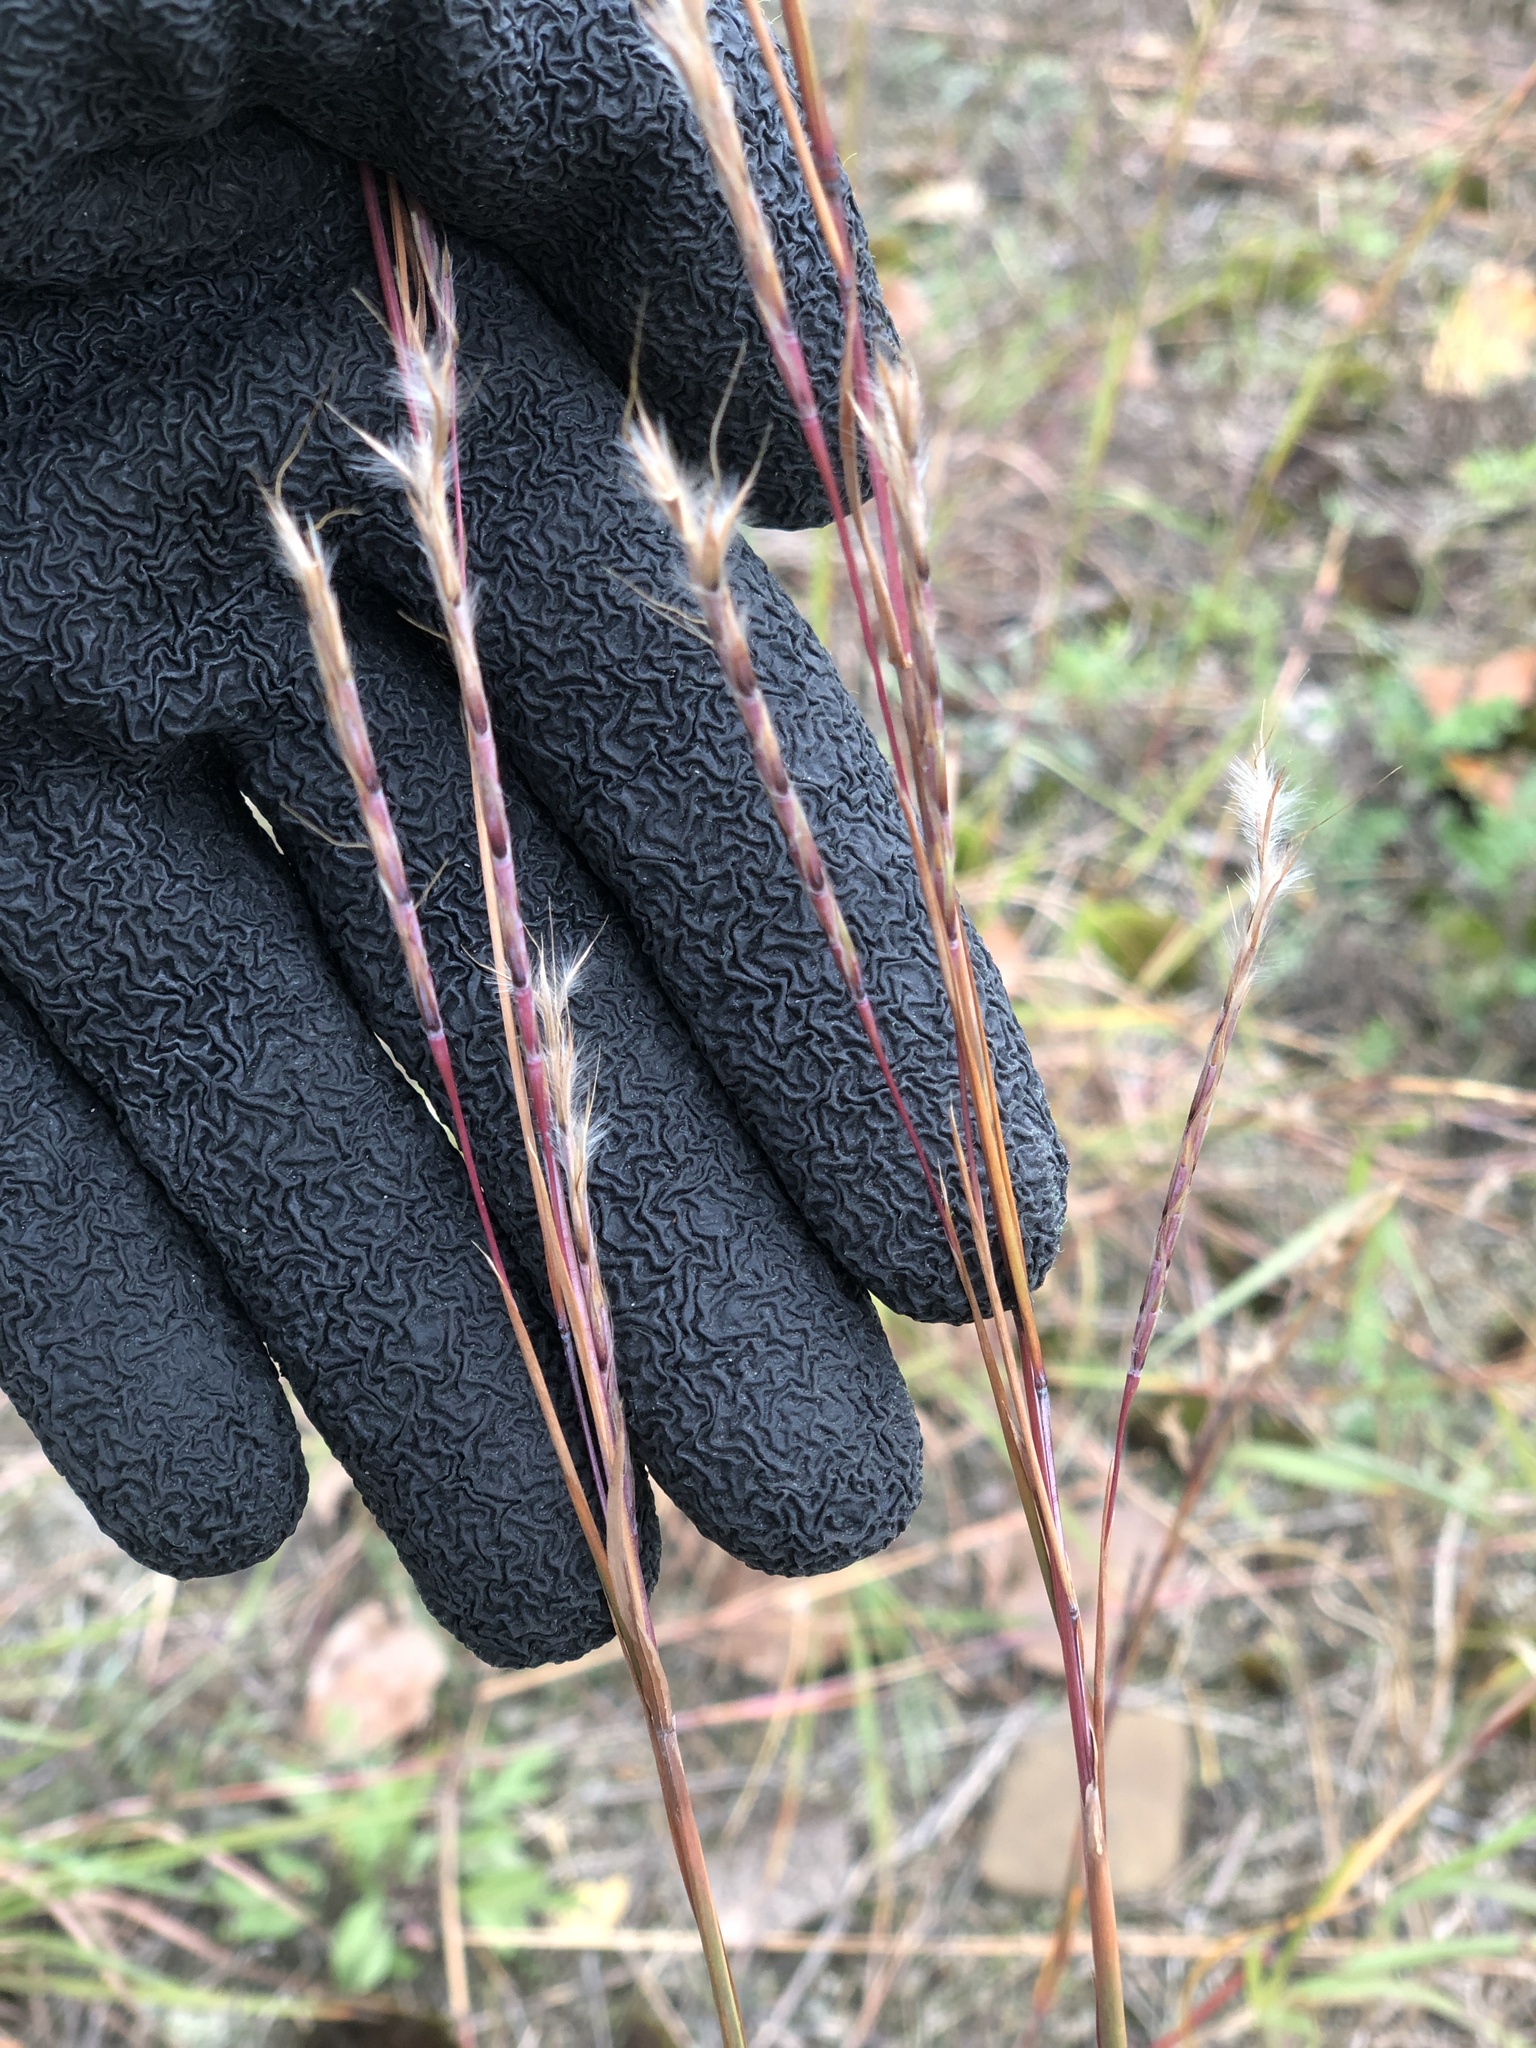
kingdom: Plantae
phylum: Tracheophyta
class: Liliopsida
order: Poales
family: Poaceae
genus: Schizachyrium
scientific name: Schizachyrium scoparium
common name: Little bluestem
